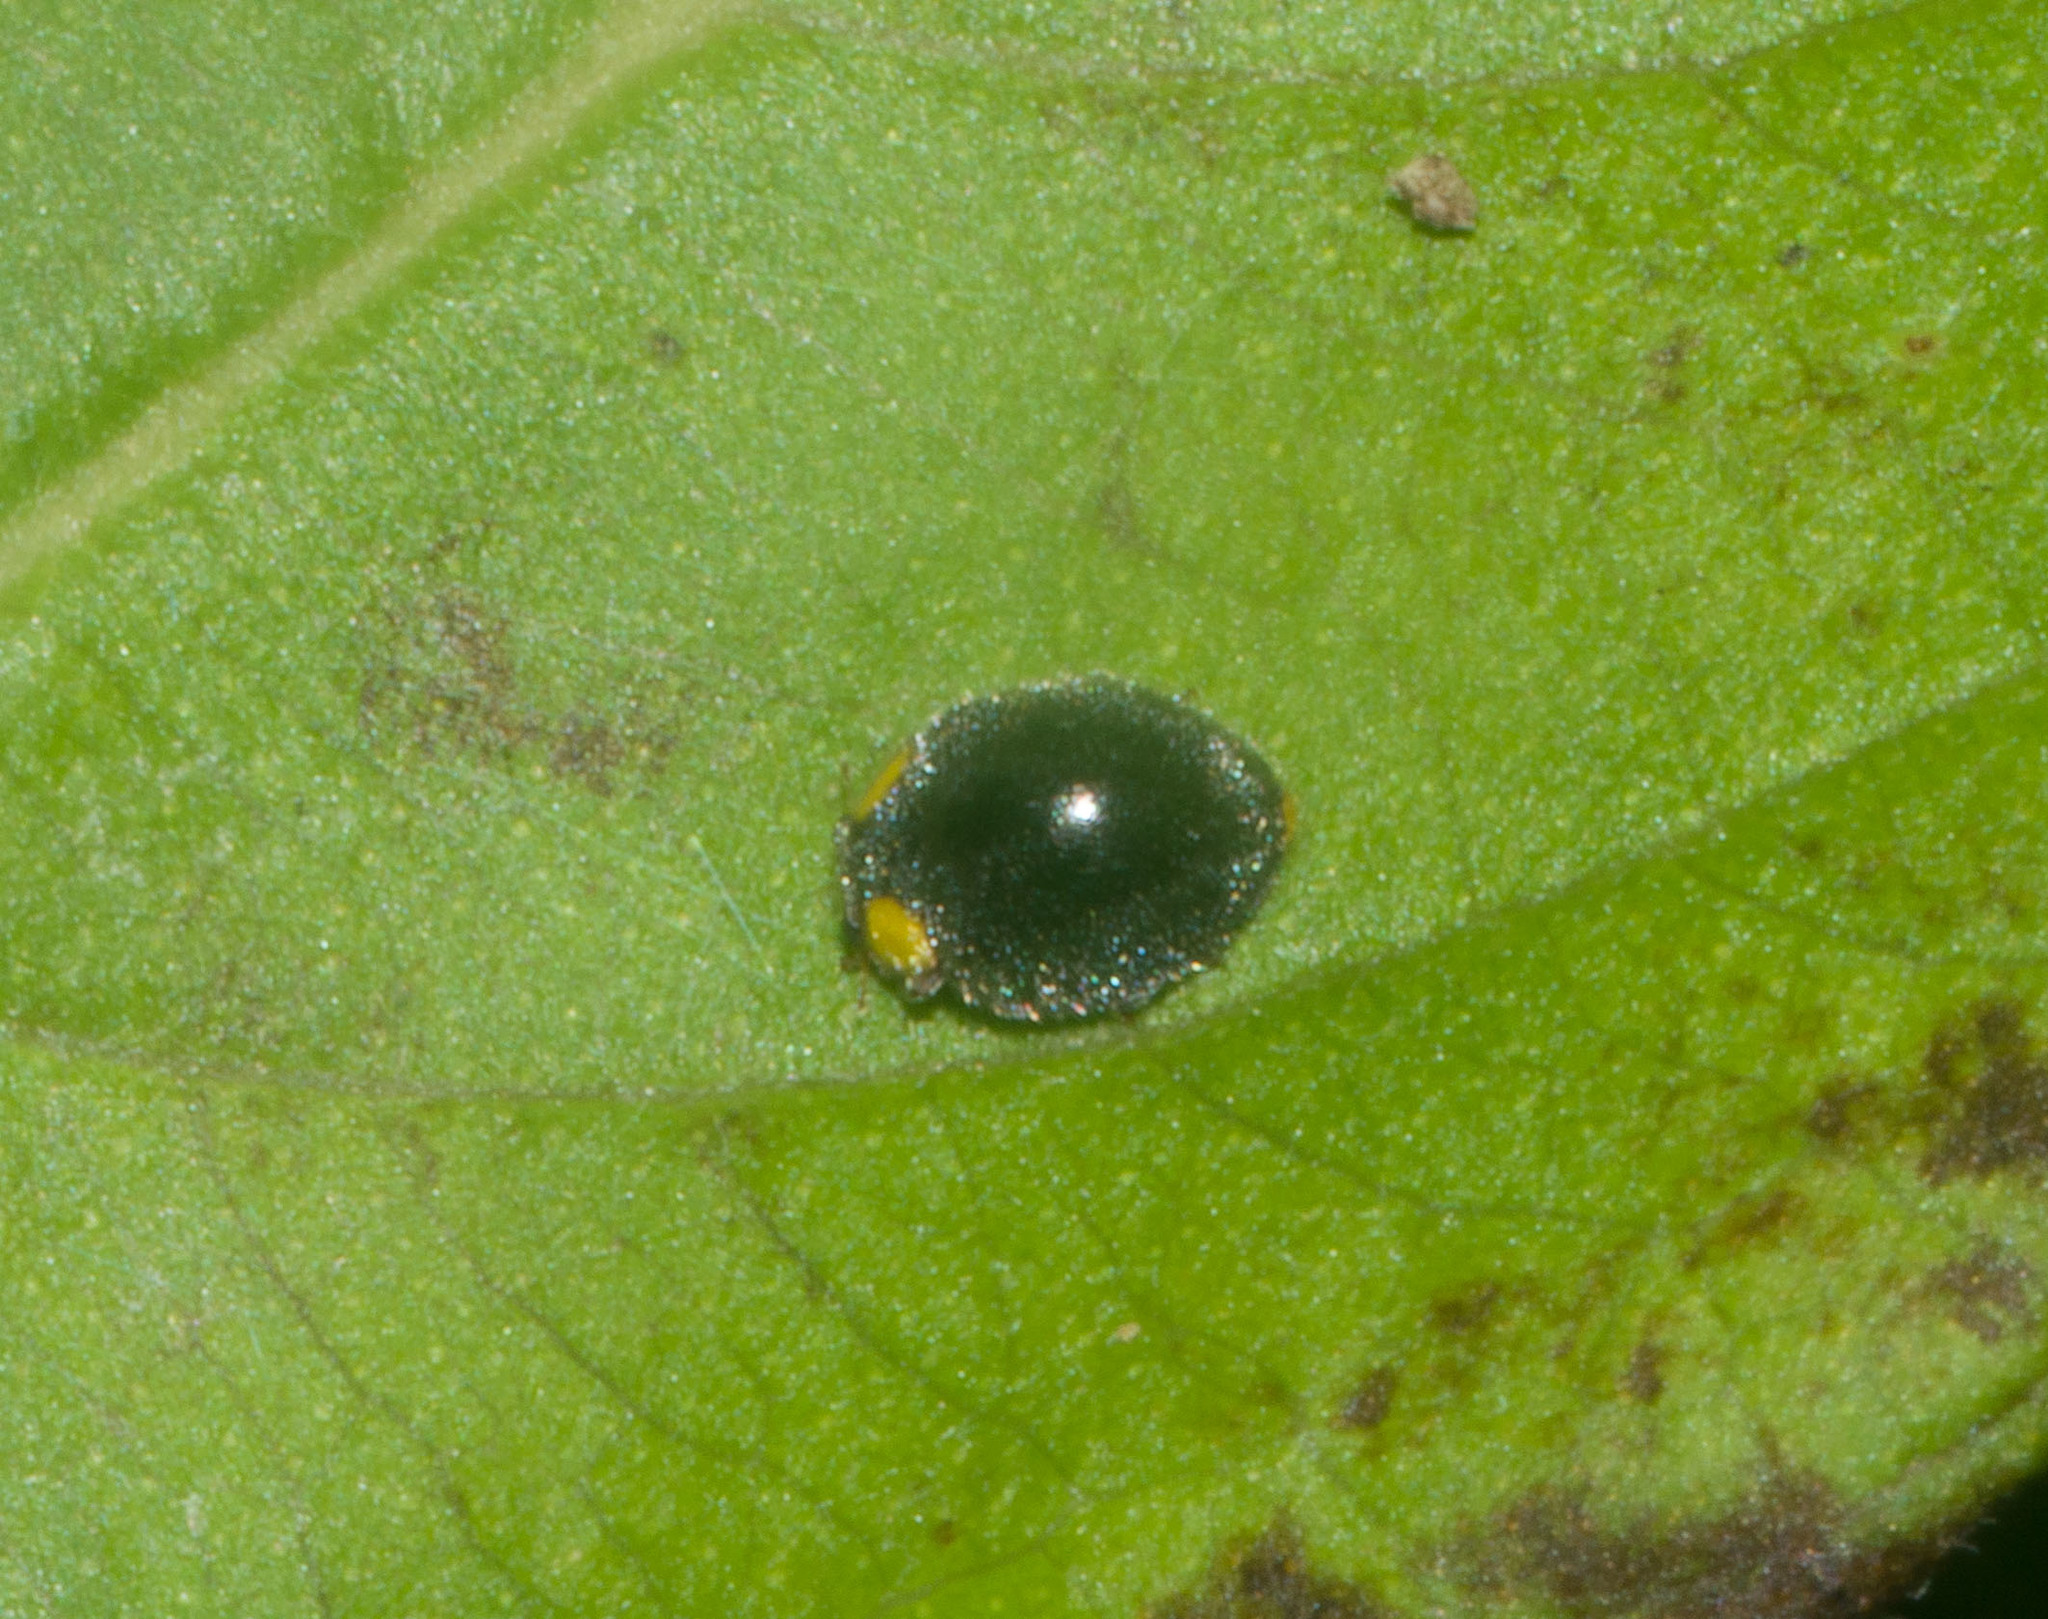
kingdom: Animalia
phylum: Arthropoda
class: Insecta
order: Coleoptera
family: Coccinellidae
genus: Scymnodes
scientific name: Scymnodes lividigaster
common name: Yellowshouldered lady beetle
